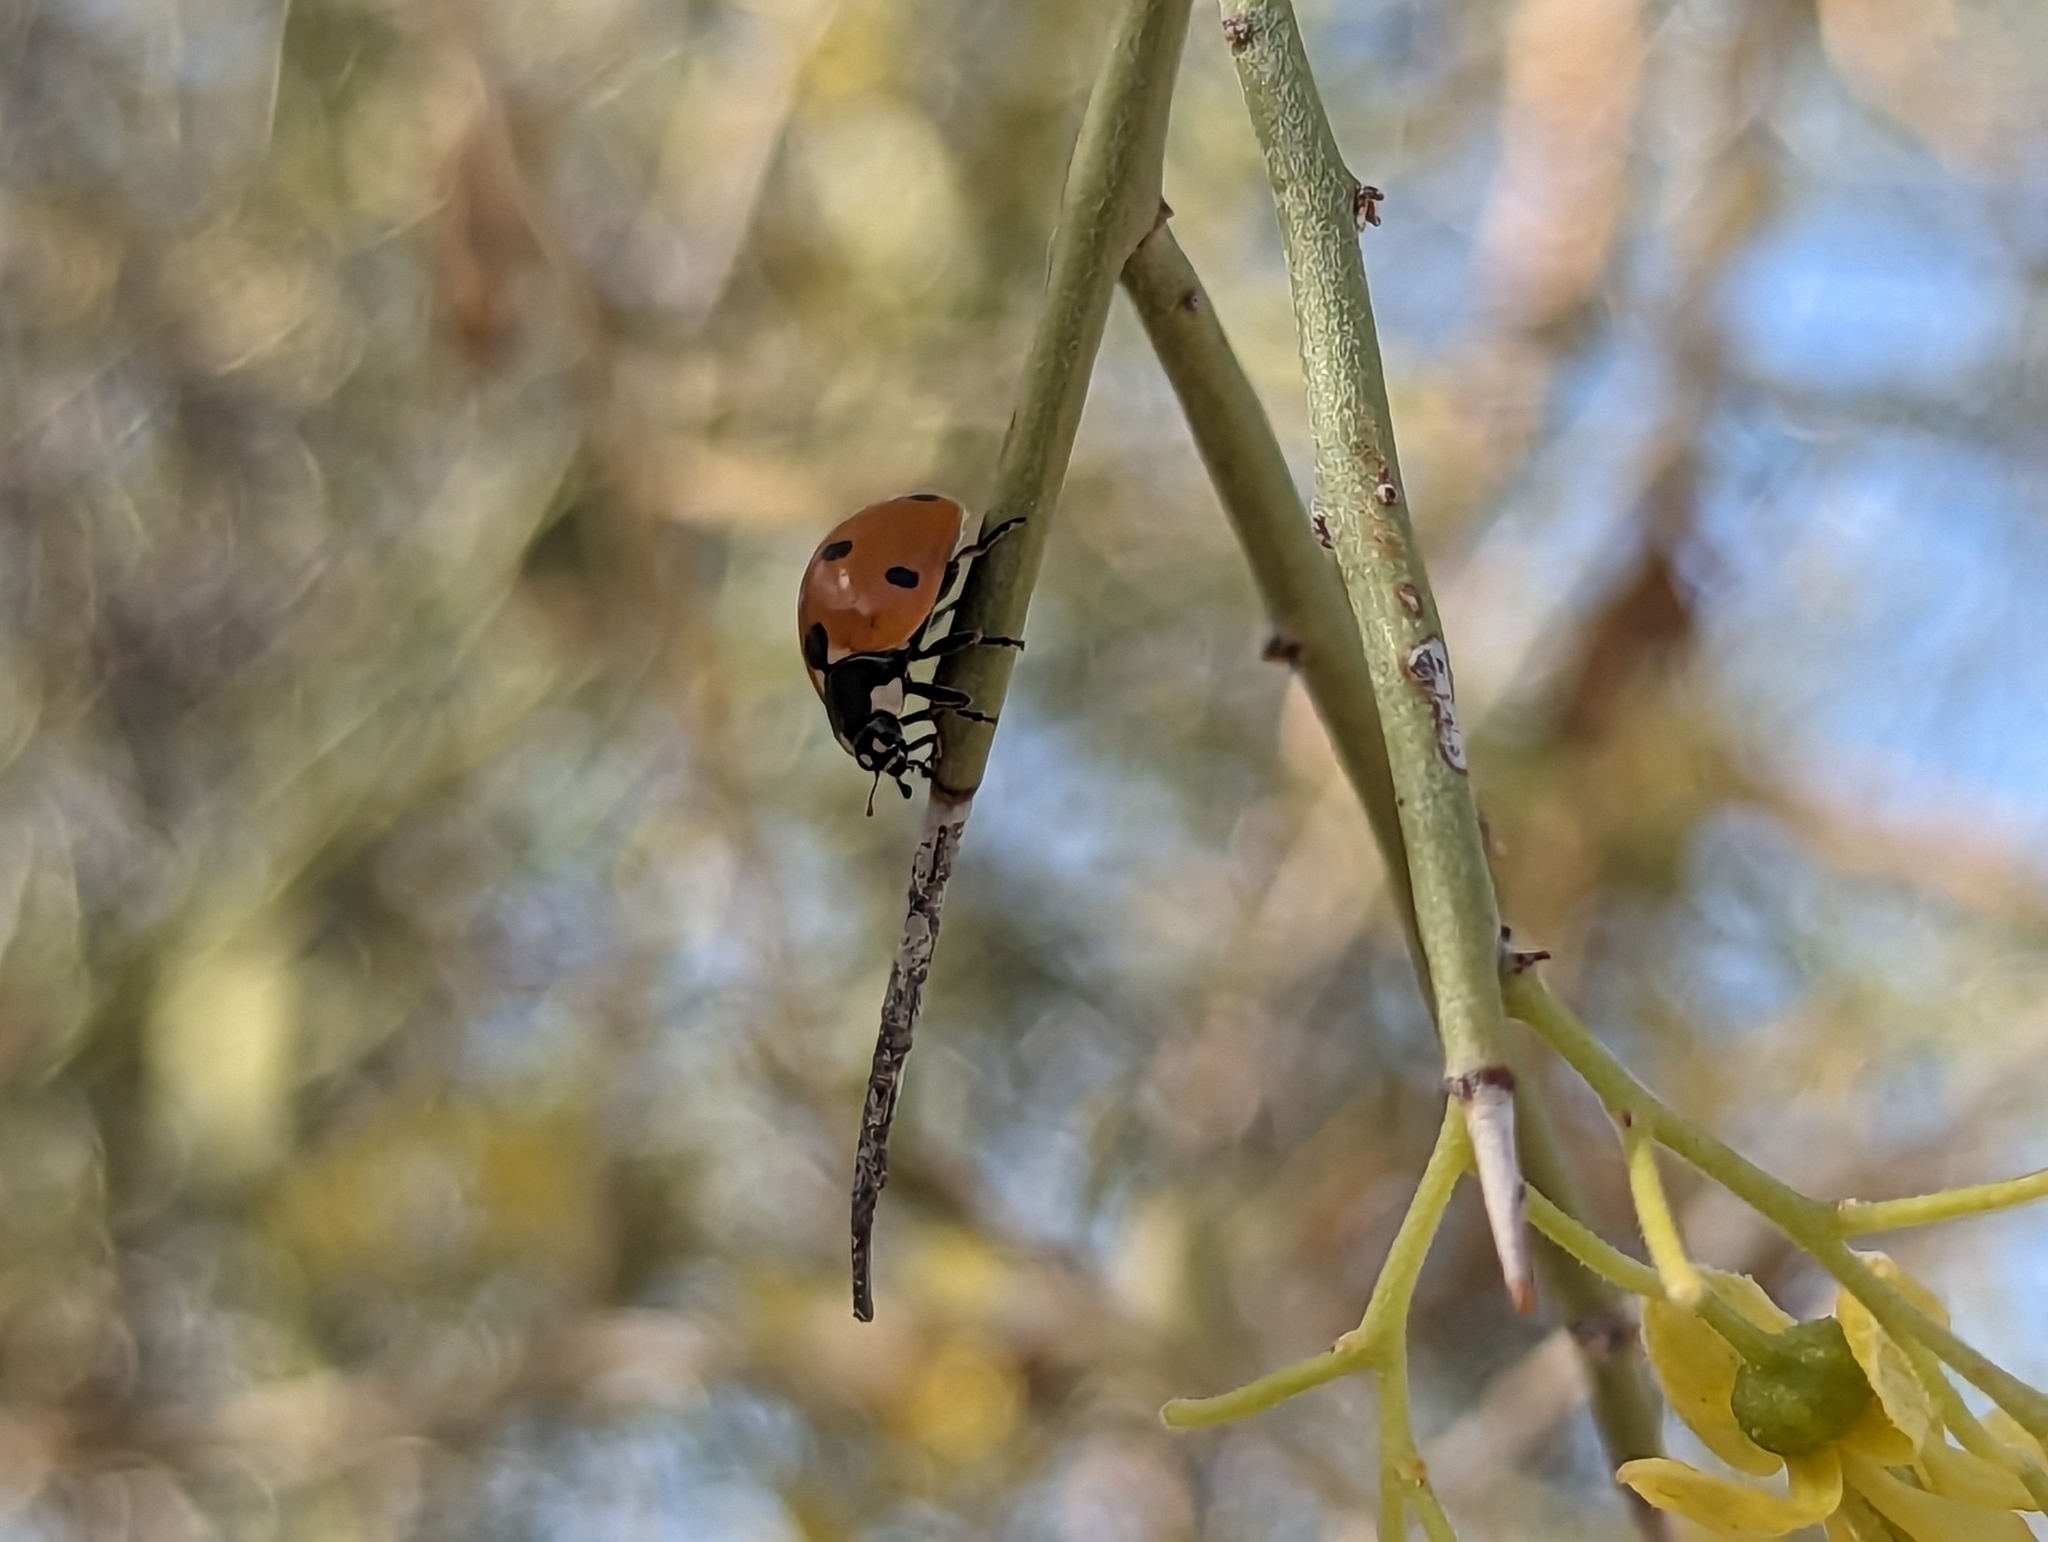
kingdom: Animalia
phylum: Arthropoda
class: Insecta
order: Coleoptera
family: Coccinellidae
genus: Coccinella
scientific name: Coccinella septempunctata
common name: Sevenspotted lady beetle
